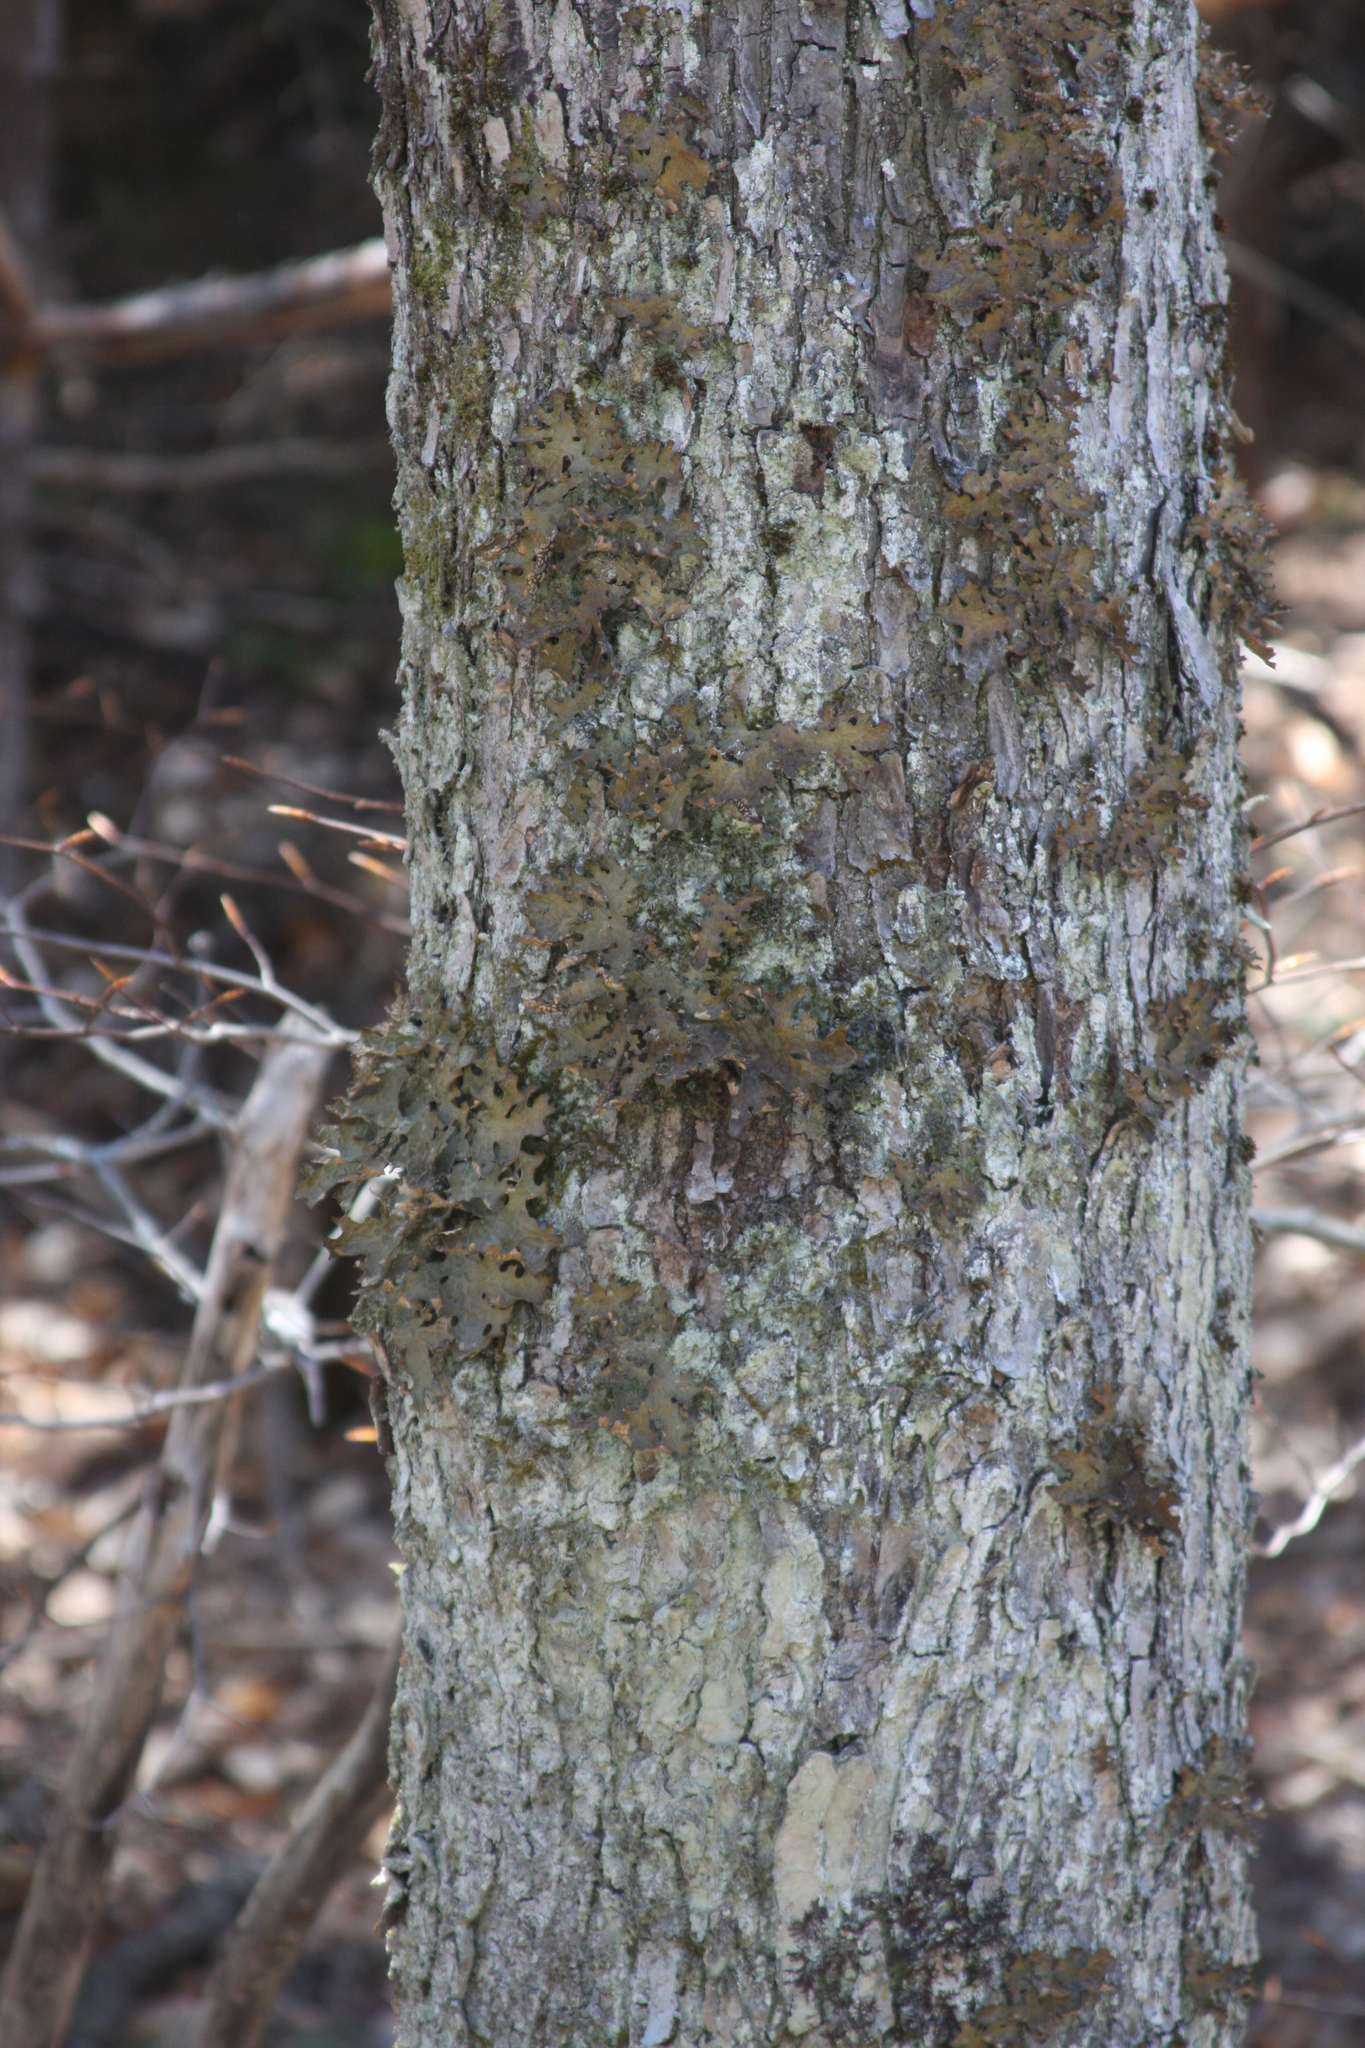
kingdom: Fungi
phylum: Ascomycota
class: Lecanoromycetes
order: Peltigerales
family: Lobariaceae
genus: Lobaria
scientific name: Lobaria pulmonaria
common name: Lungwort
